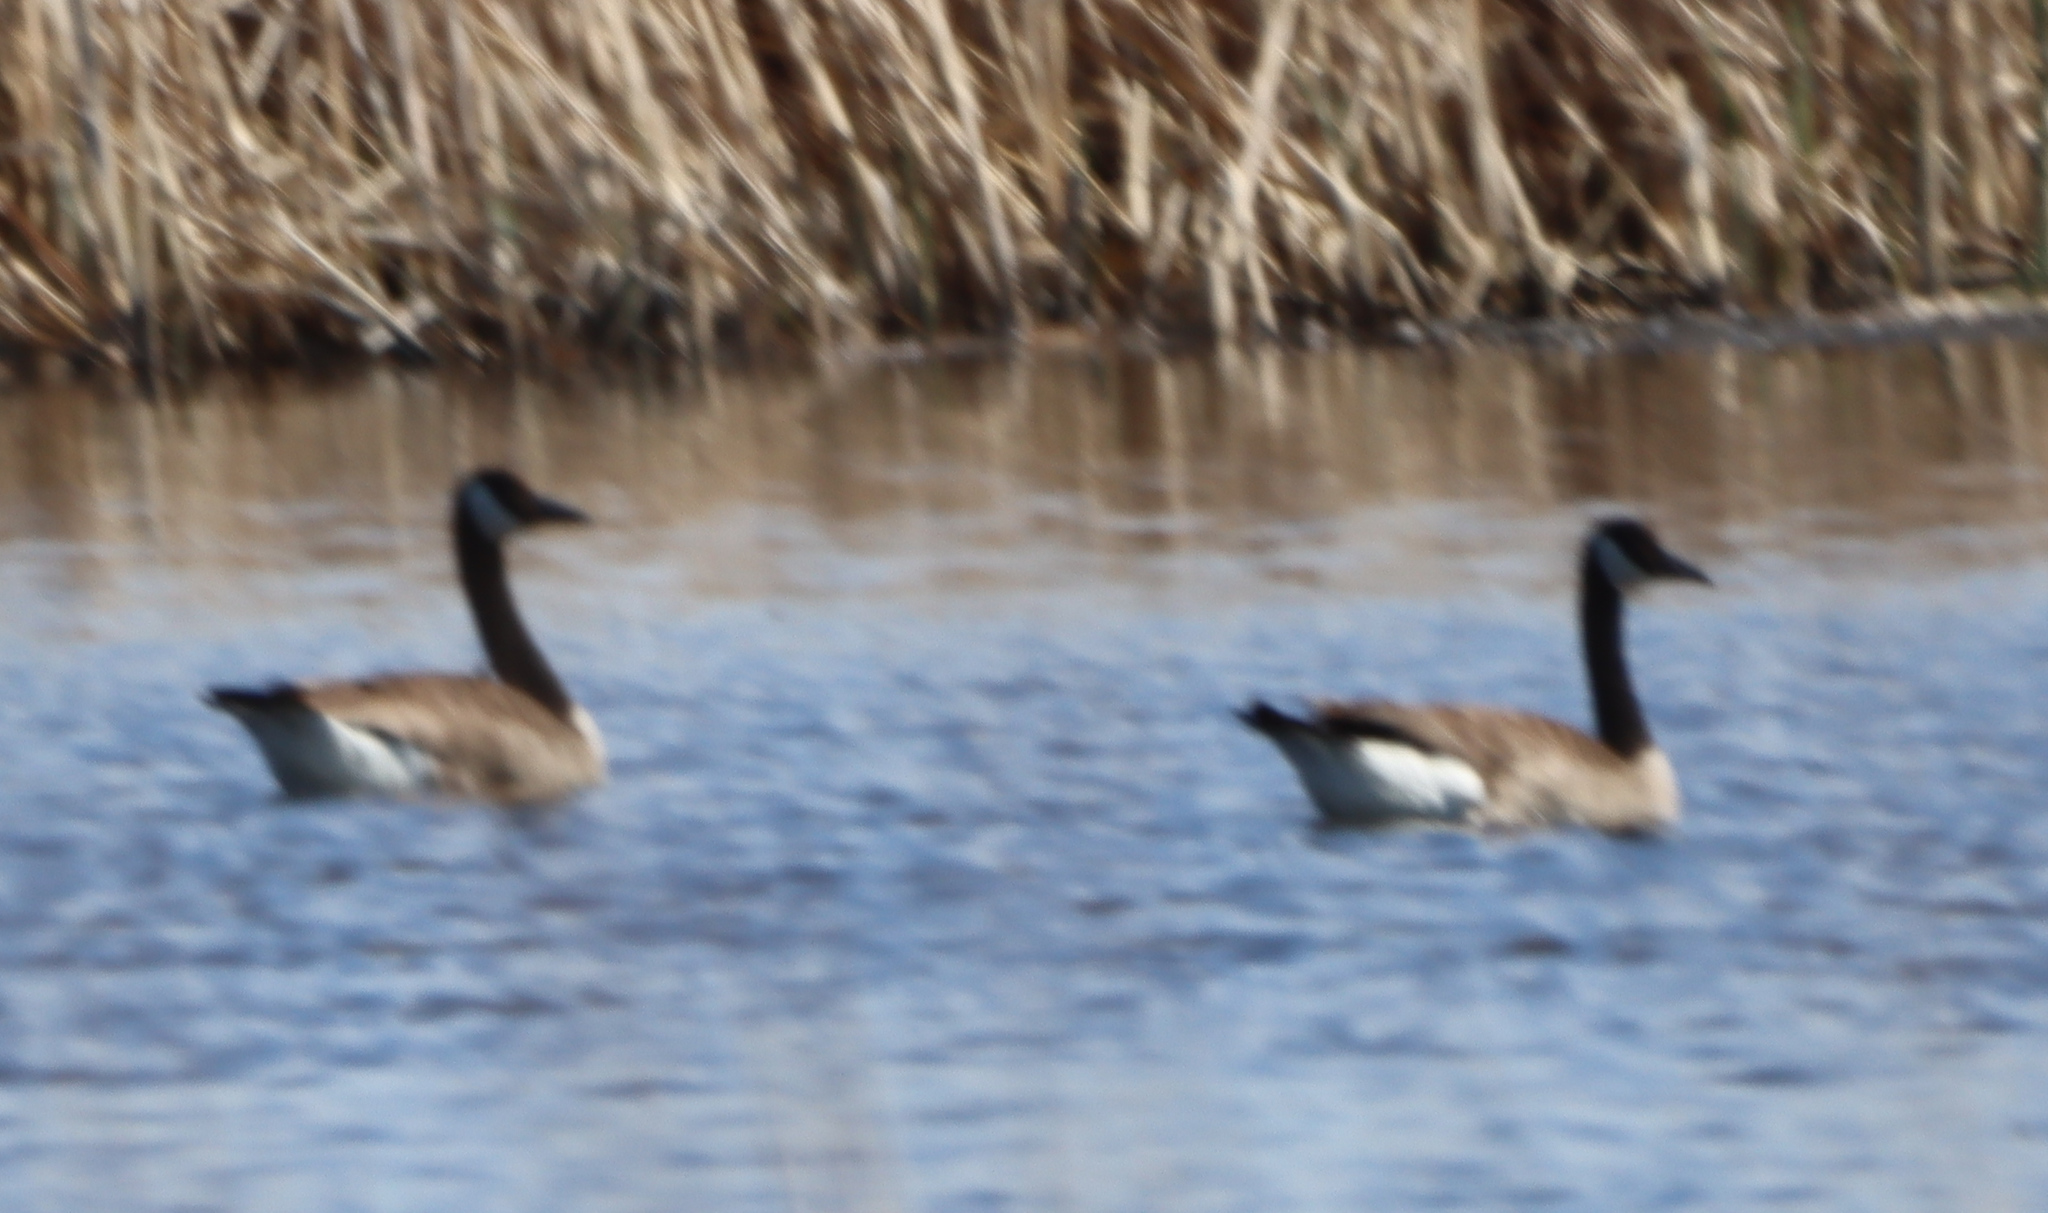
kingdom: Animalia
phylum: Chordata
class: Aves
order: Anseriformes
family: Anatidae
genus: Branta
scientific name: Branta canadensis
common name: Canada goose
